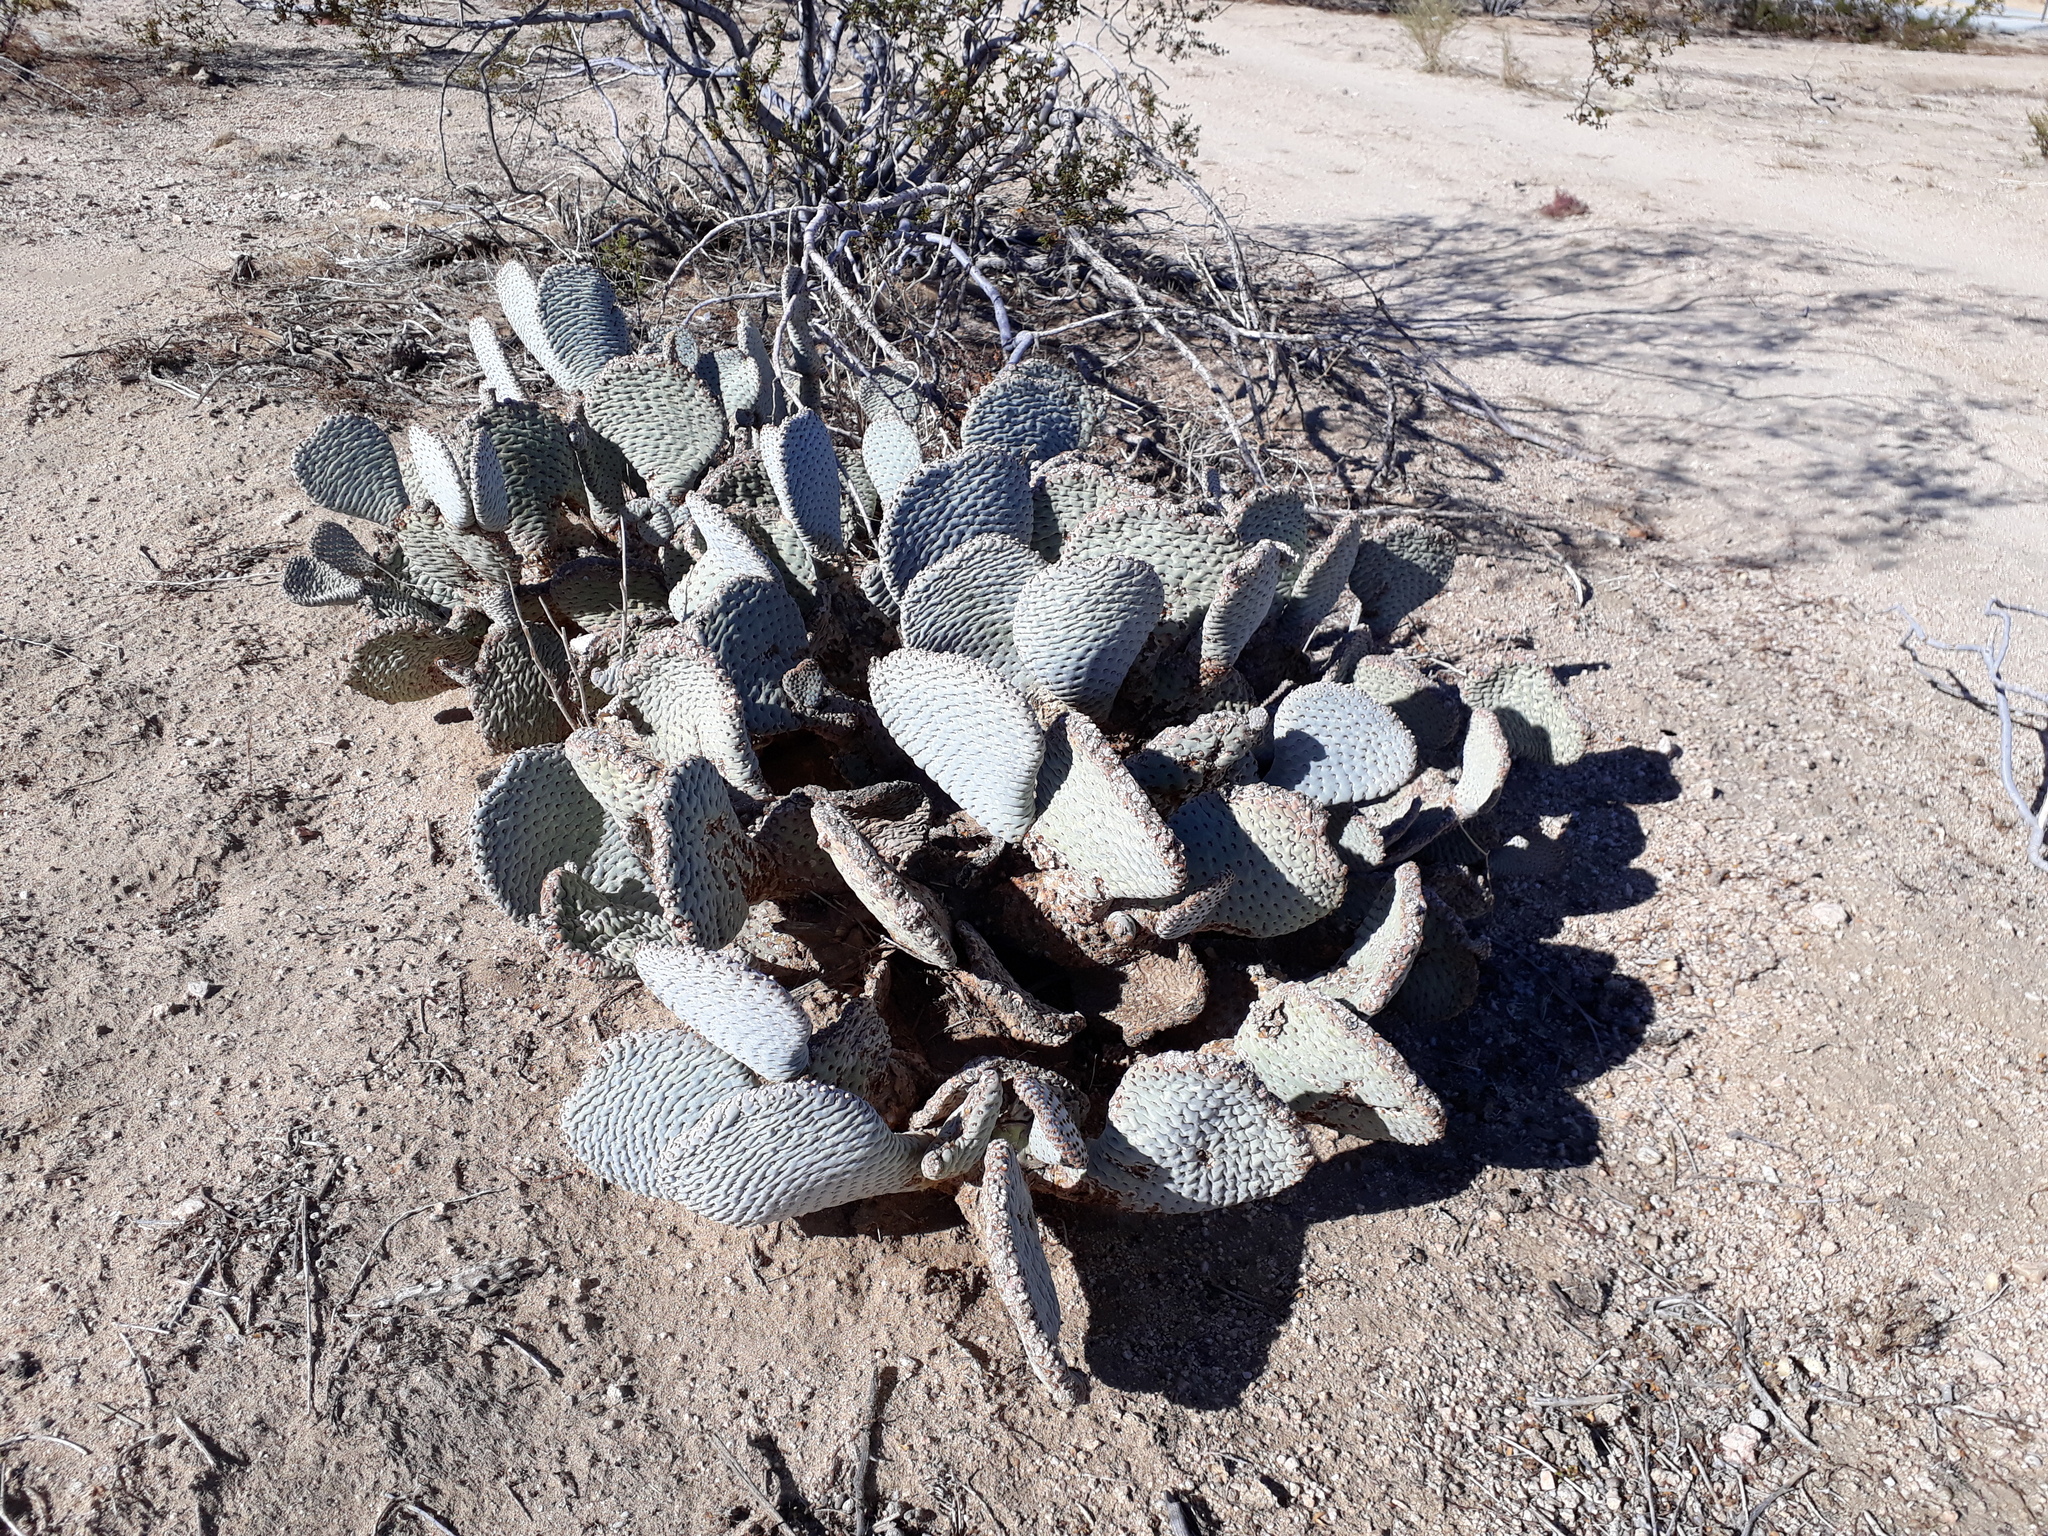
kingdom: Plantae
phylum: Tracheophyta
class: Magnoliopsida
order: Caryophyllales
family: Cactaceae
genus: Opuntia
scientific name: Opuntia basilaris
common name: Beavertail prickly-pear
